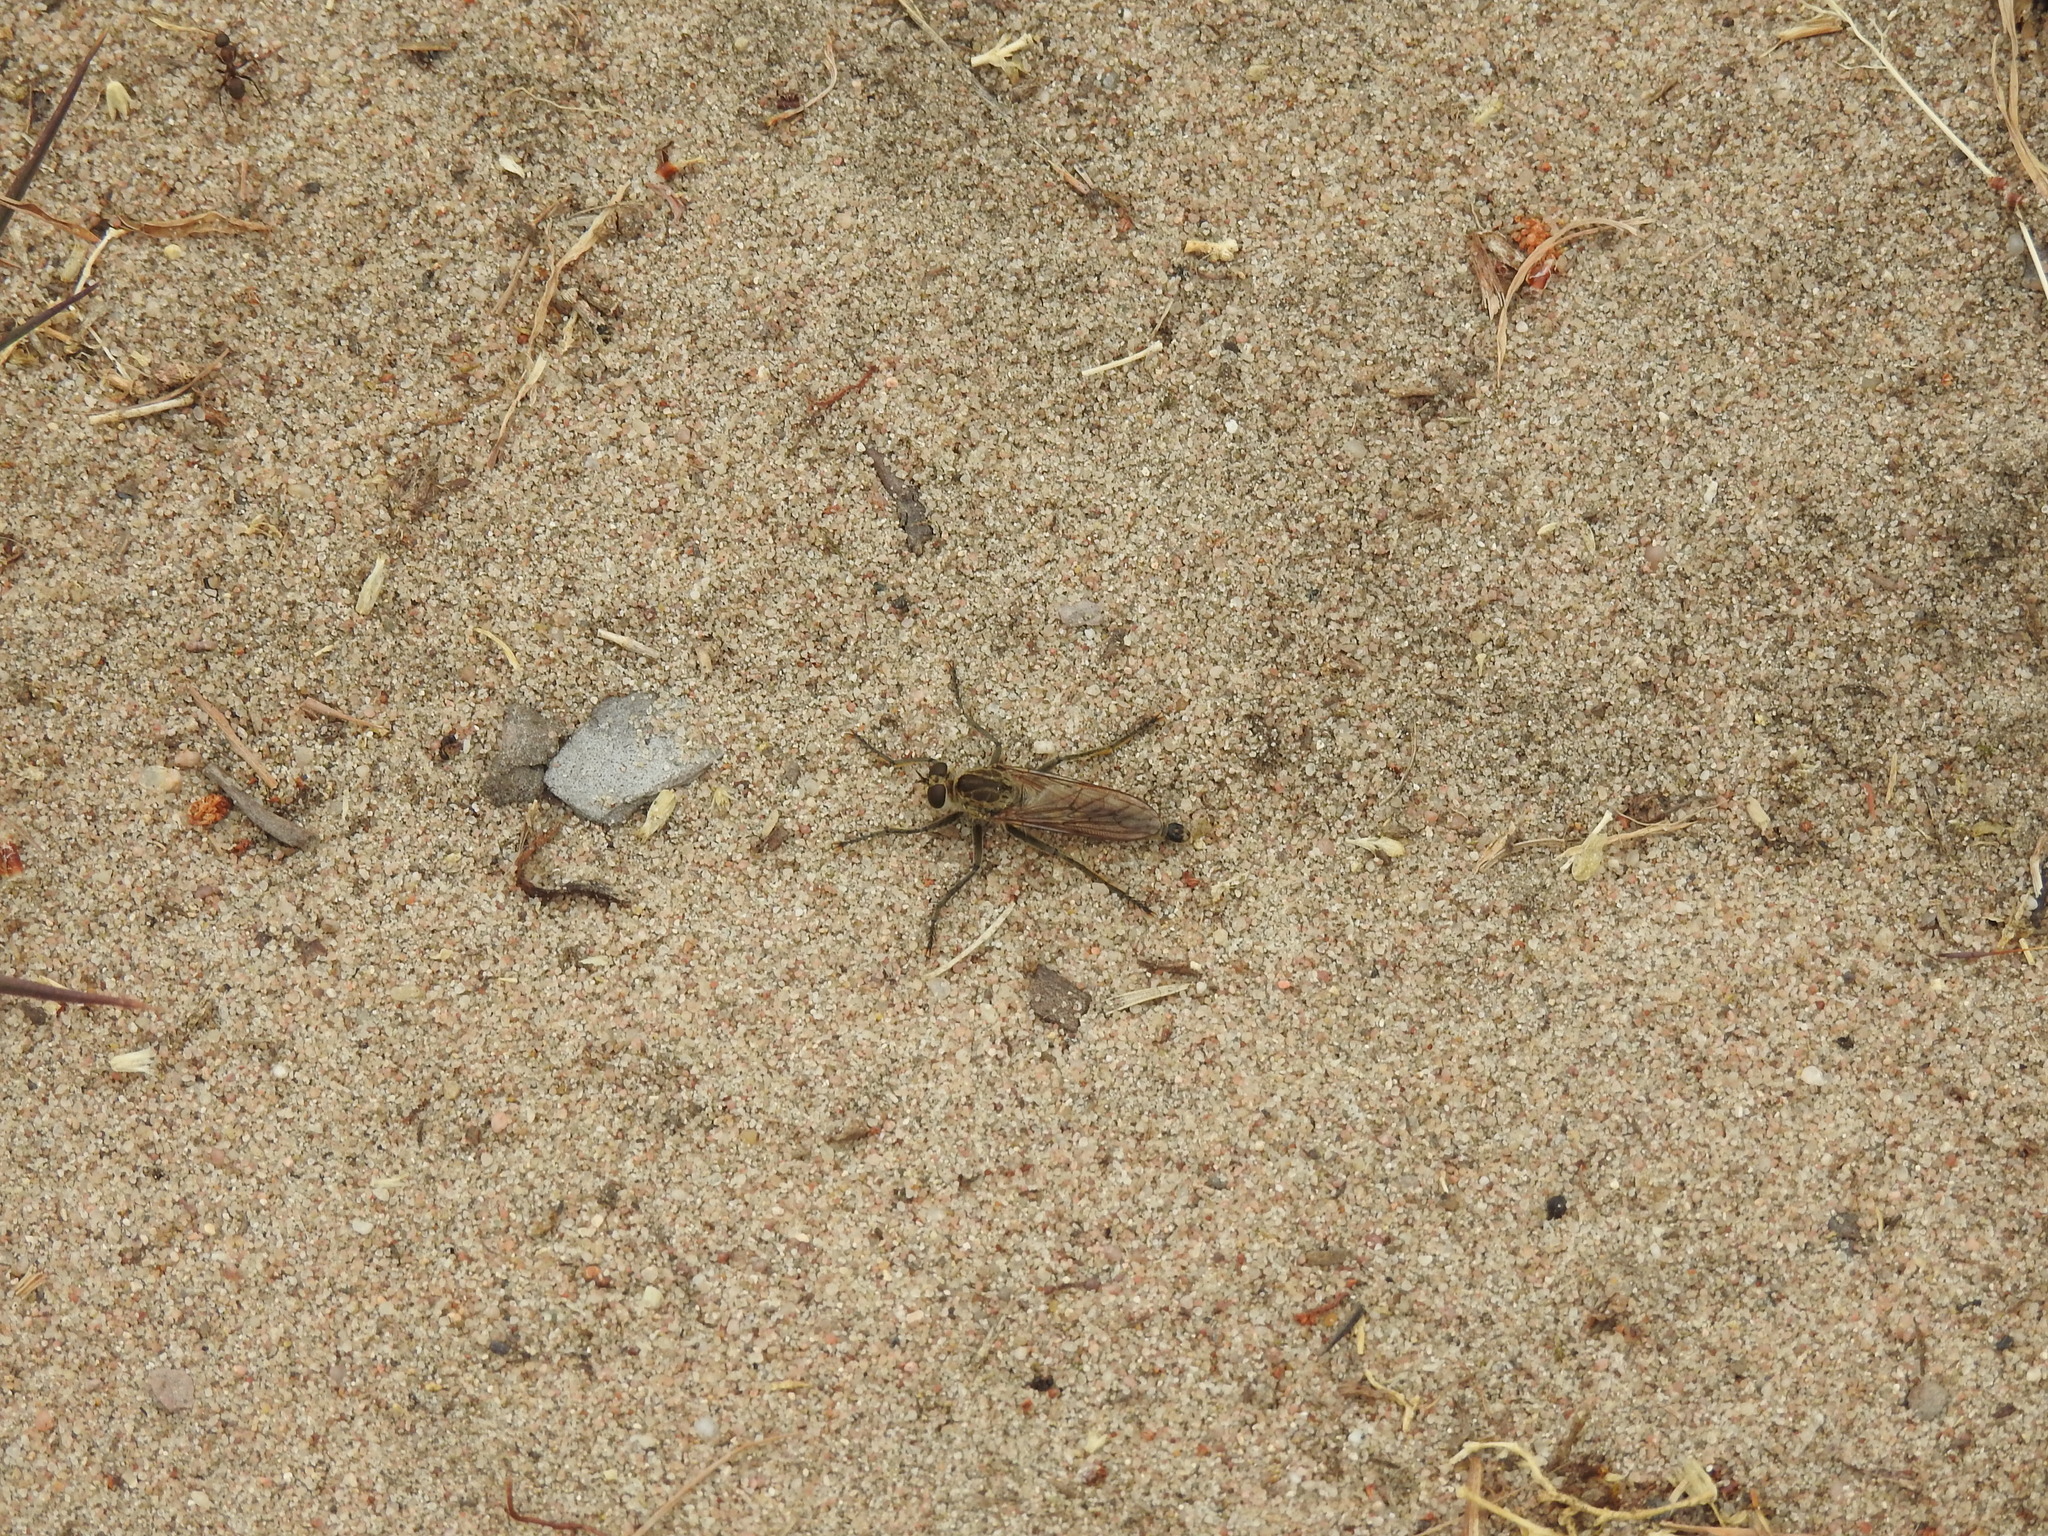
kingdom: Animalia
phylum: Arthropoda
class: Insecta
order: Diptera
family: Asilidae
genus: Philonicus
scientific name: Philonicus albiceps
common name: Dune robberfly
